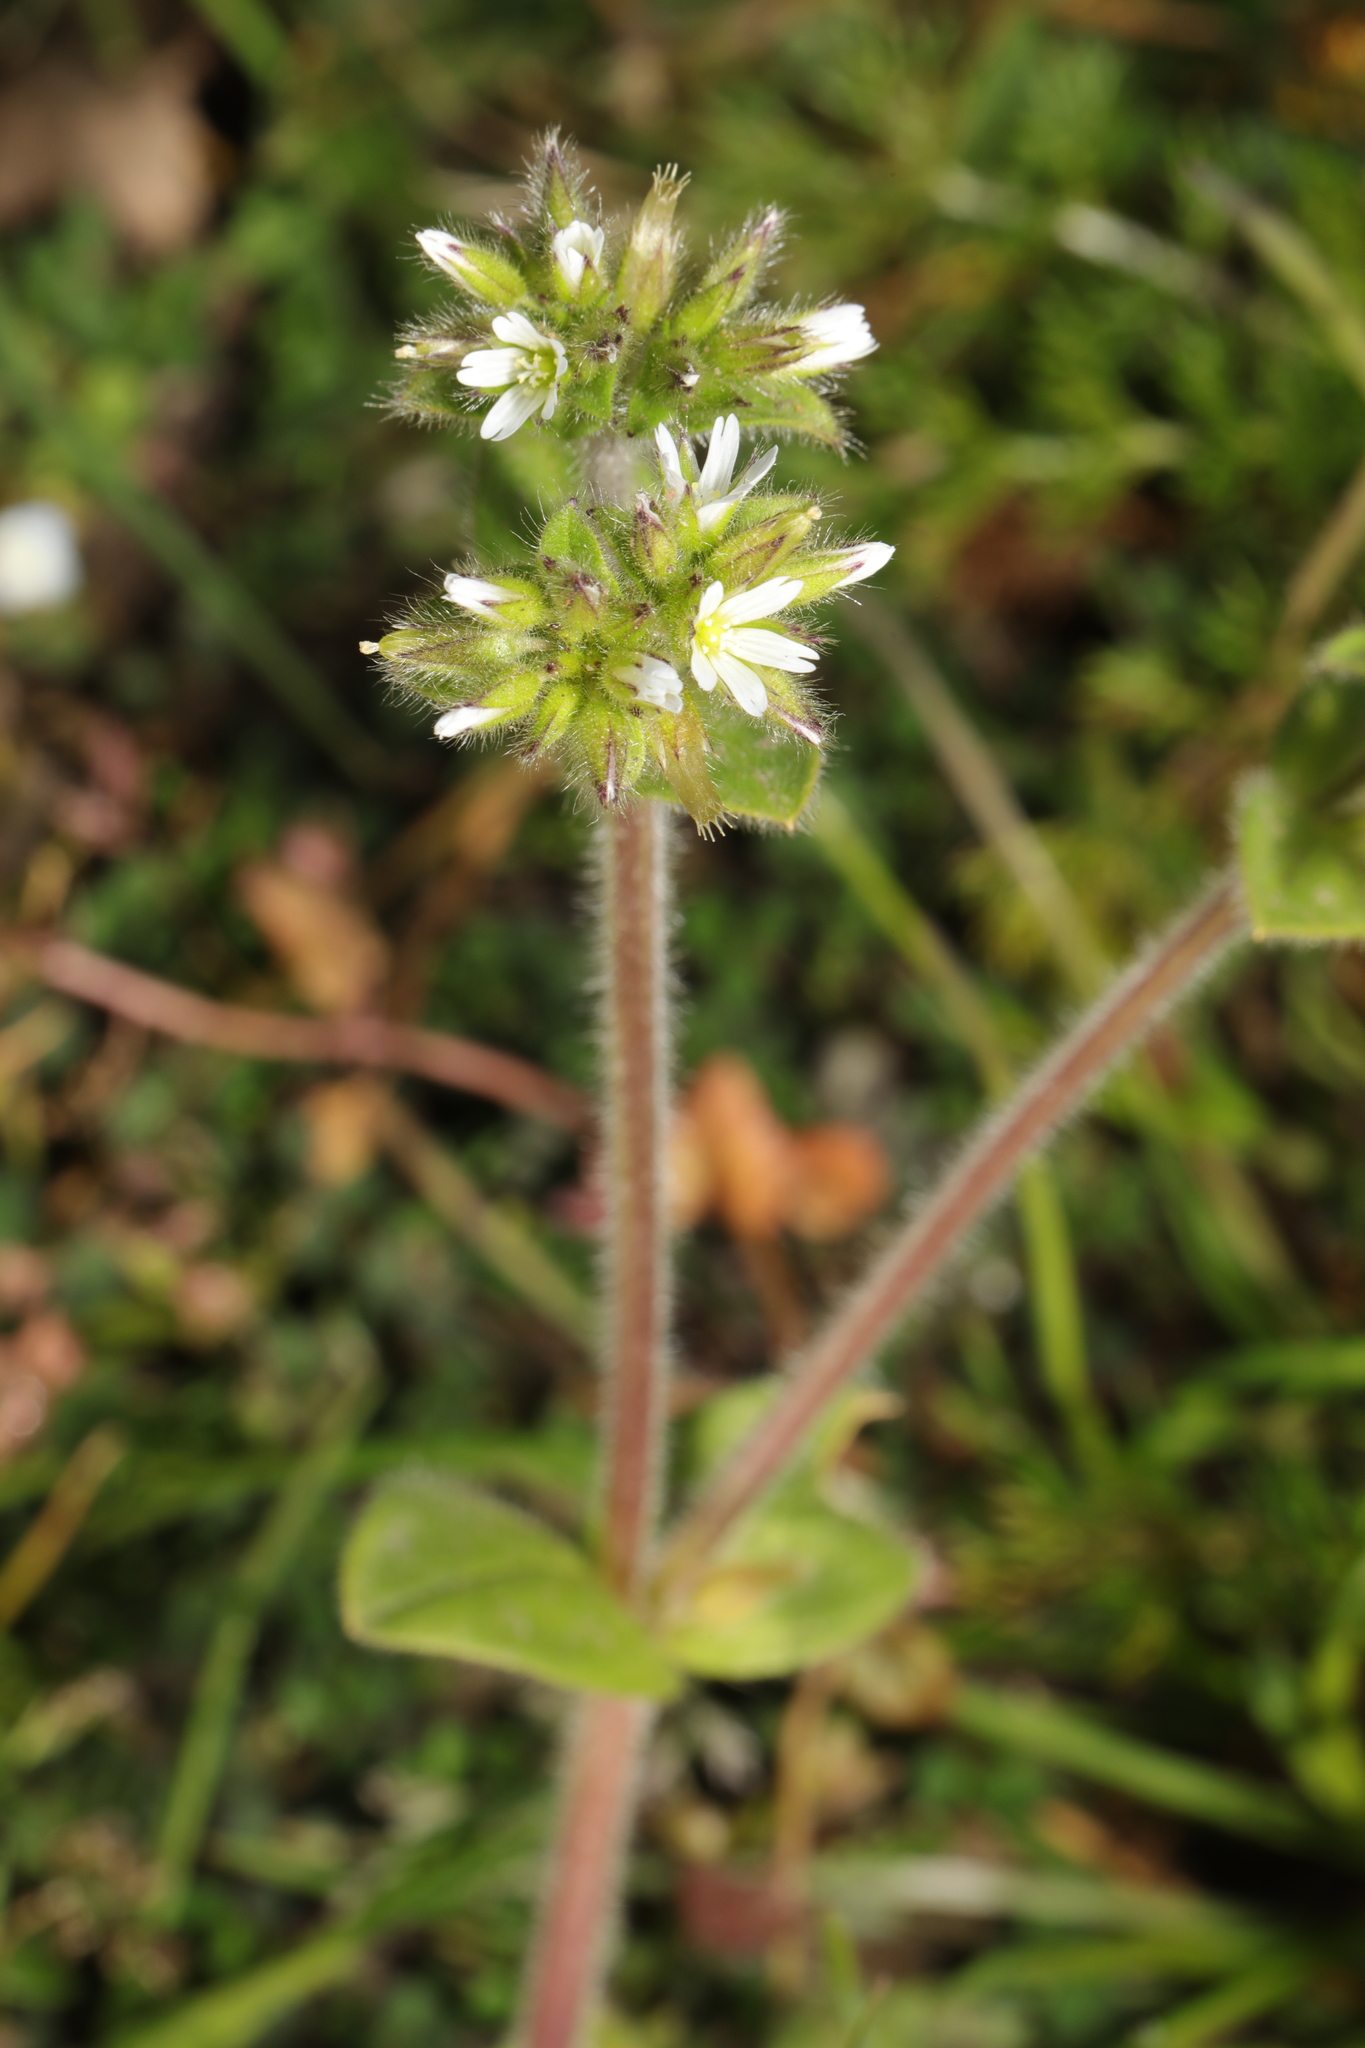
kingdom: Plantae
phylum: Tracheophyta
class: Magnoliopsida
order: Caryophyllales
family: Caryophyllaceae
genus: Cerastium
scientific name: Cerastium glomeratum
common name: Sticky chickweed
